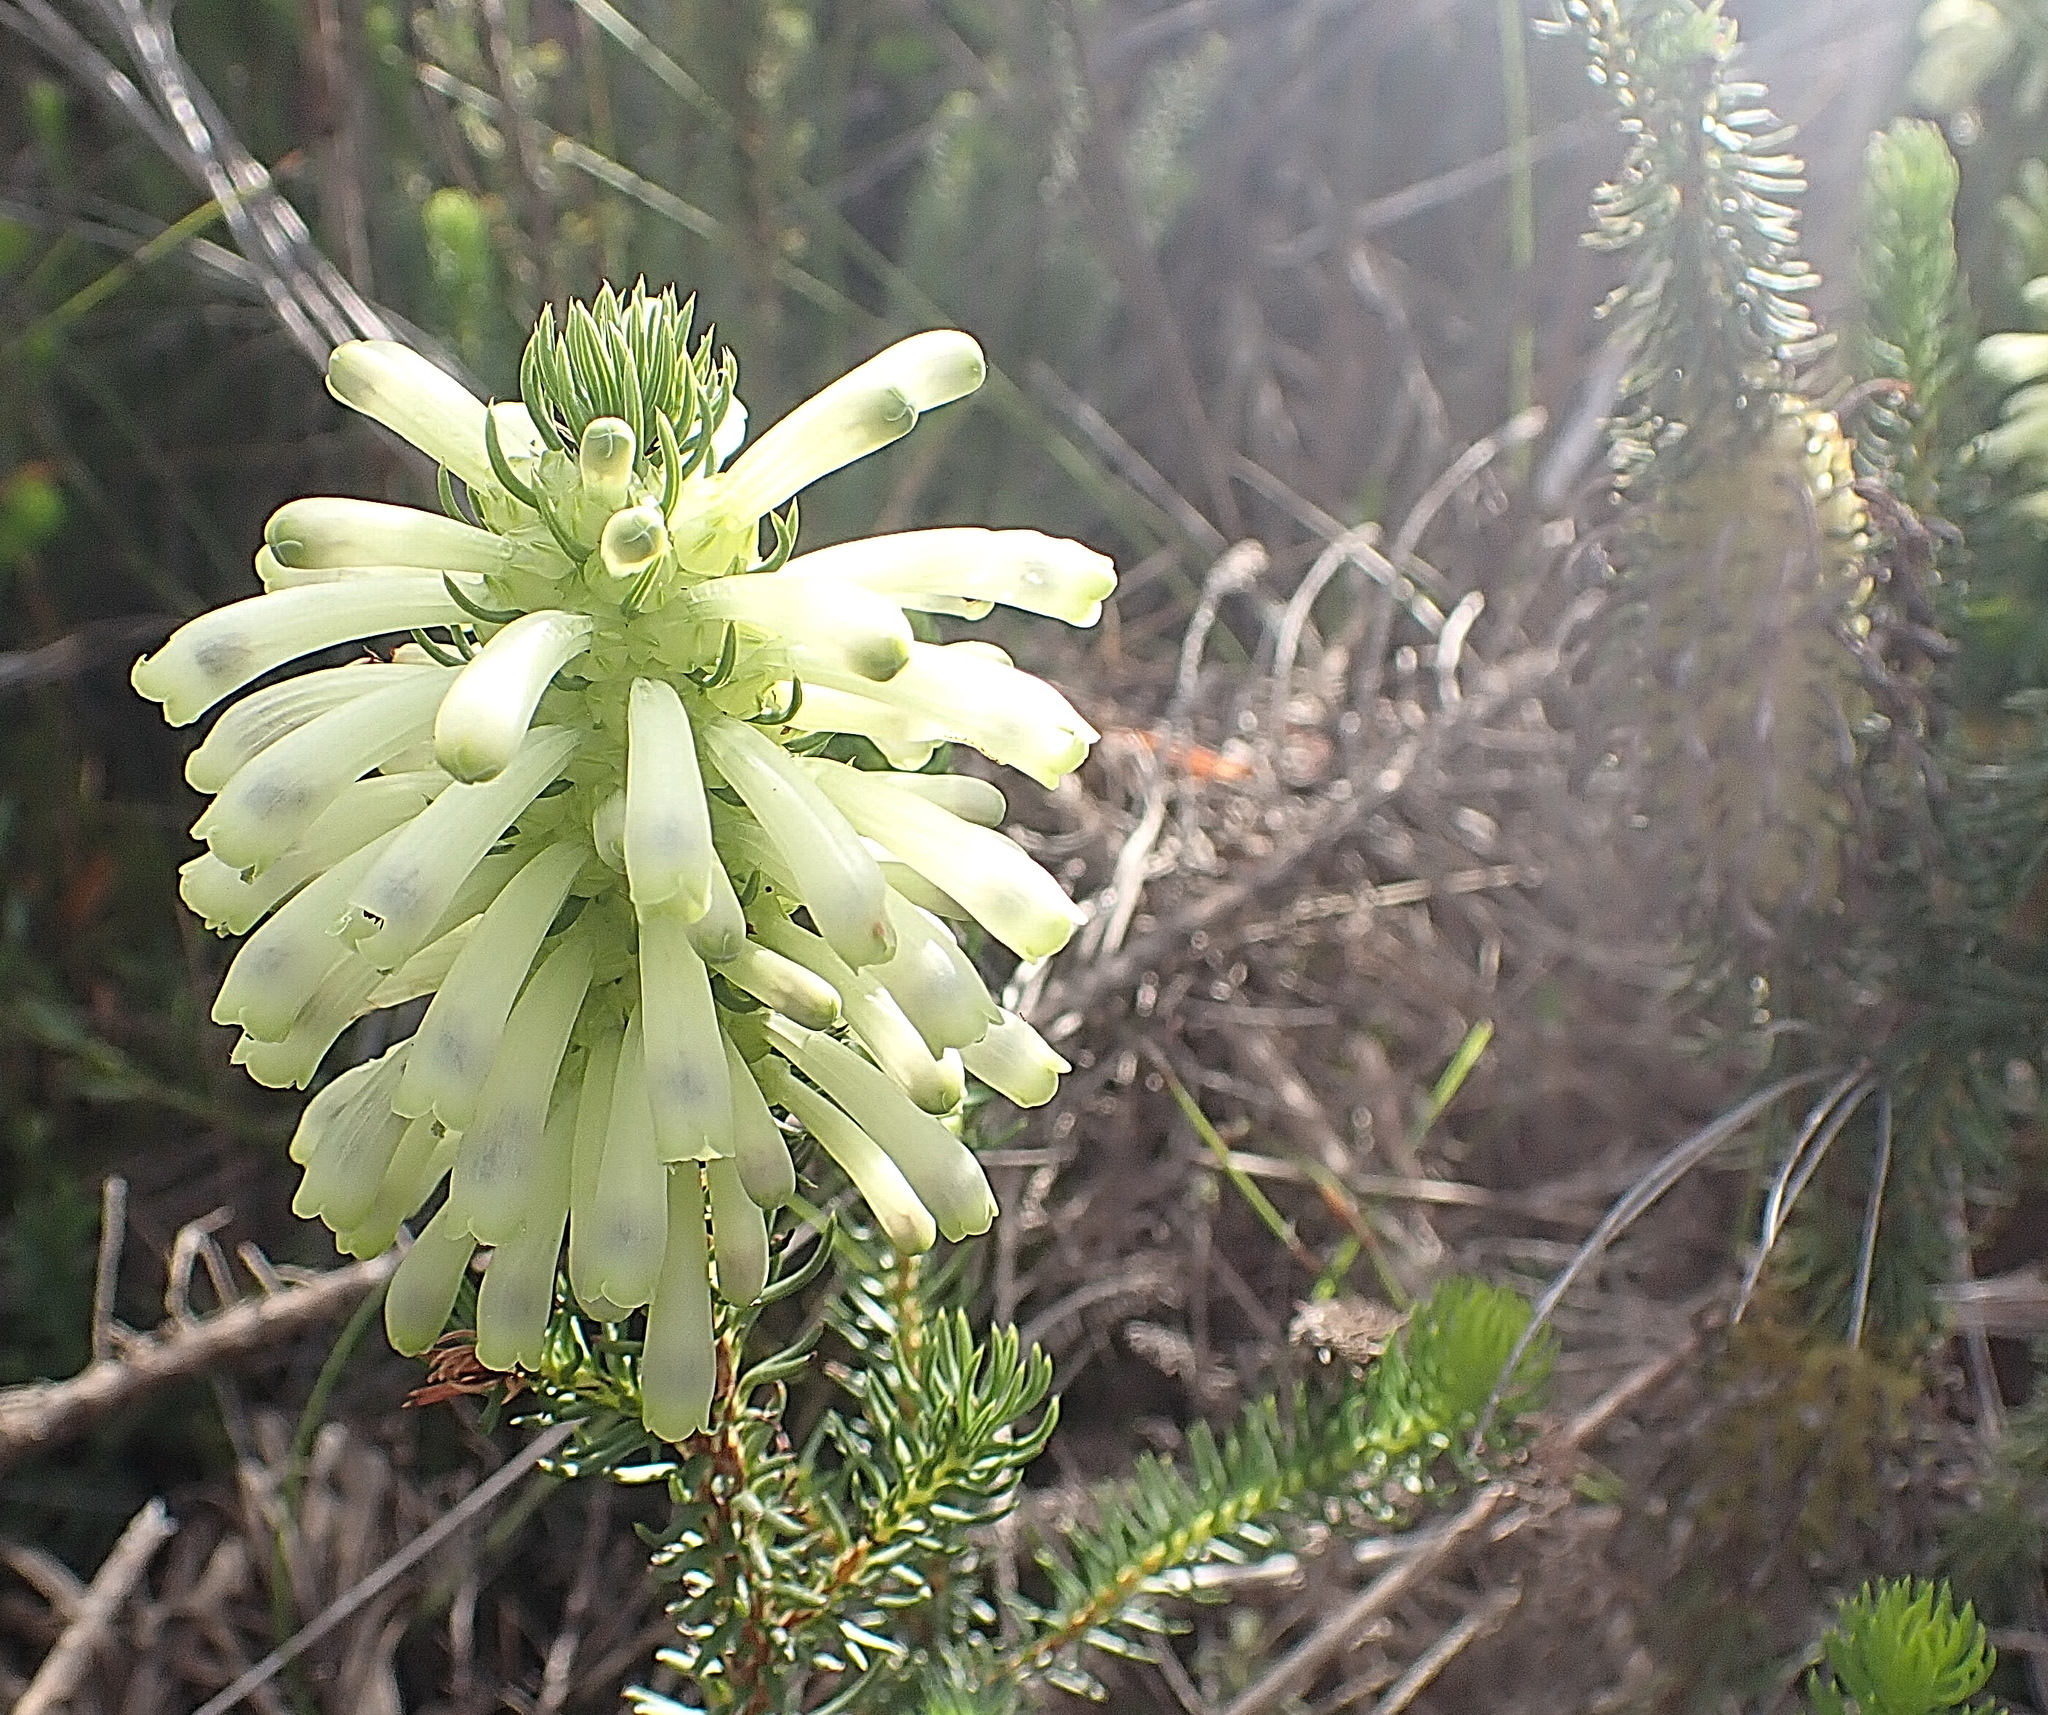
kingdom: Plantae
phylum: Tracheophyta
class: Magnoliopsida
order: Ericales
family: Ericaceae
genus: Erica
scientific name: Erica sessiliflora
